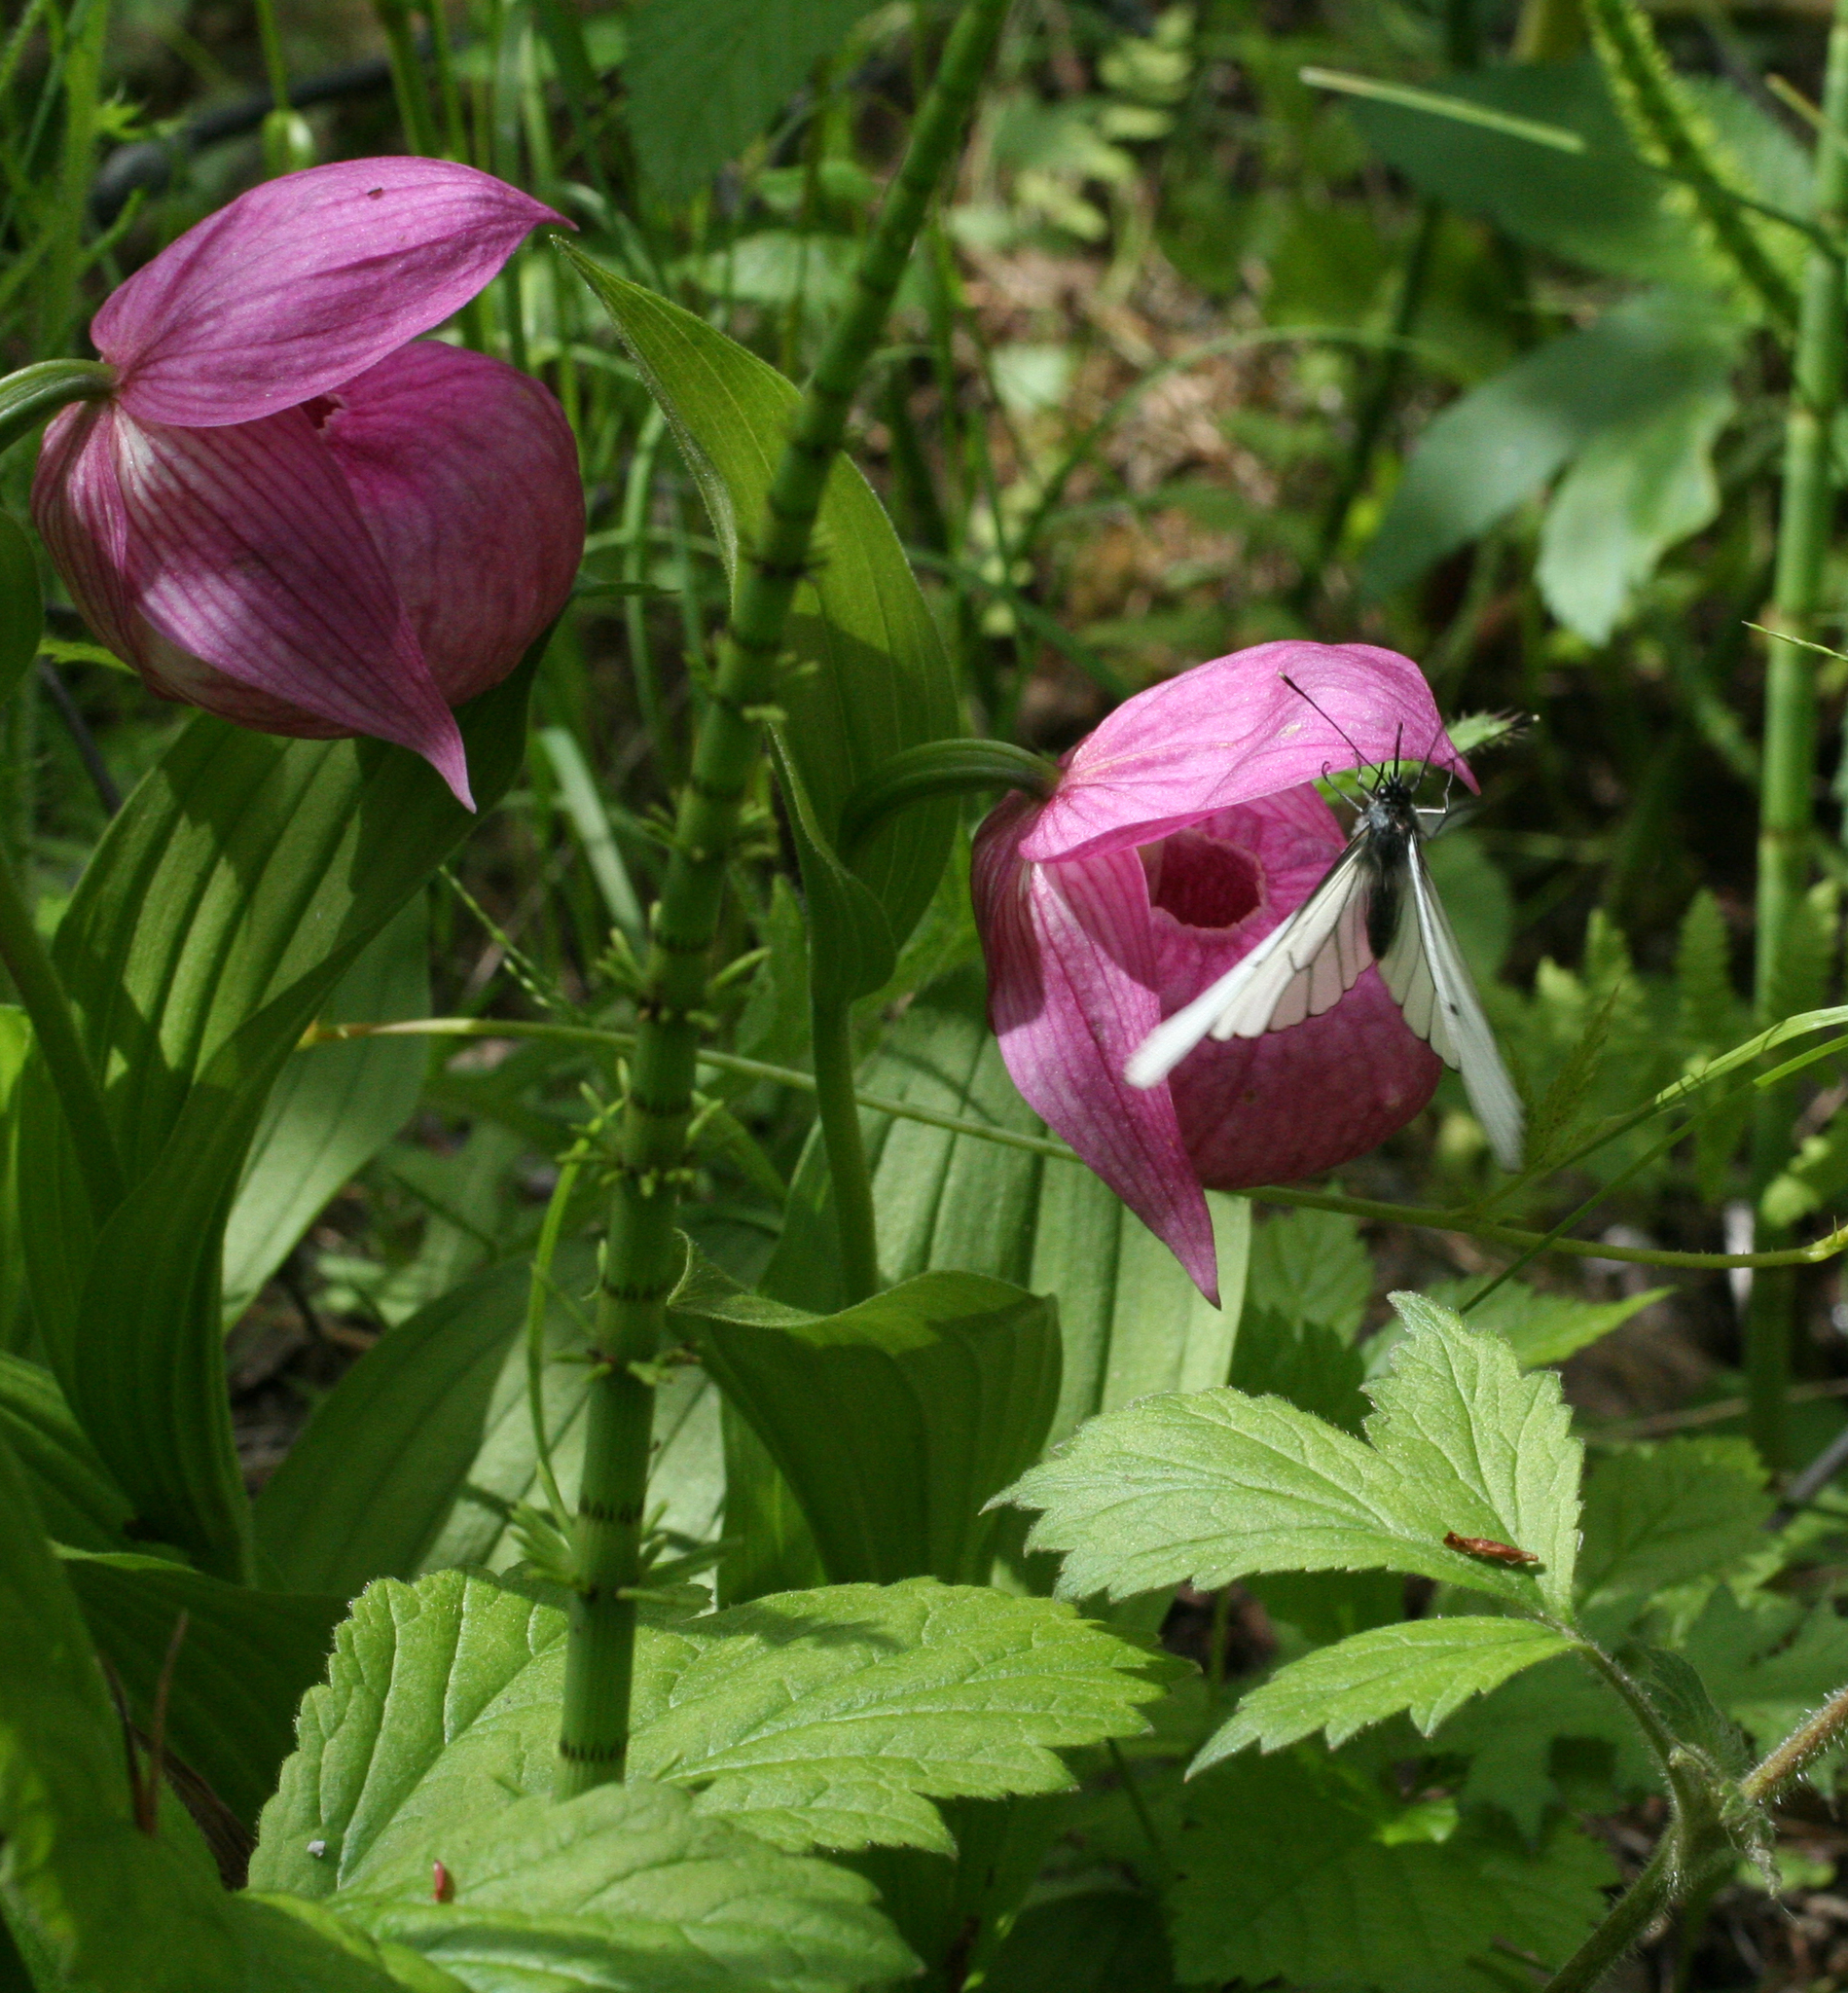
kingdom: Plantae
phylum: Tracheophyta
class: Liliopsida
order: Asparagales
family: Orchidaceae
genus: Cypripedium
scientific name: Cypripedium macranthos
